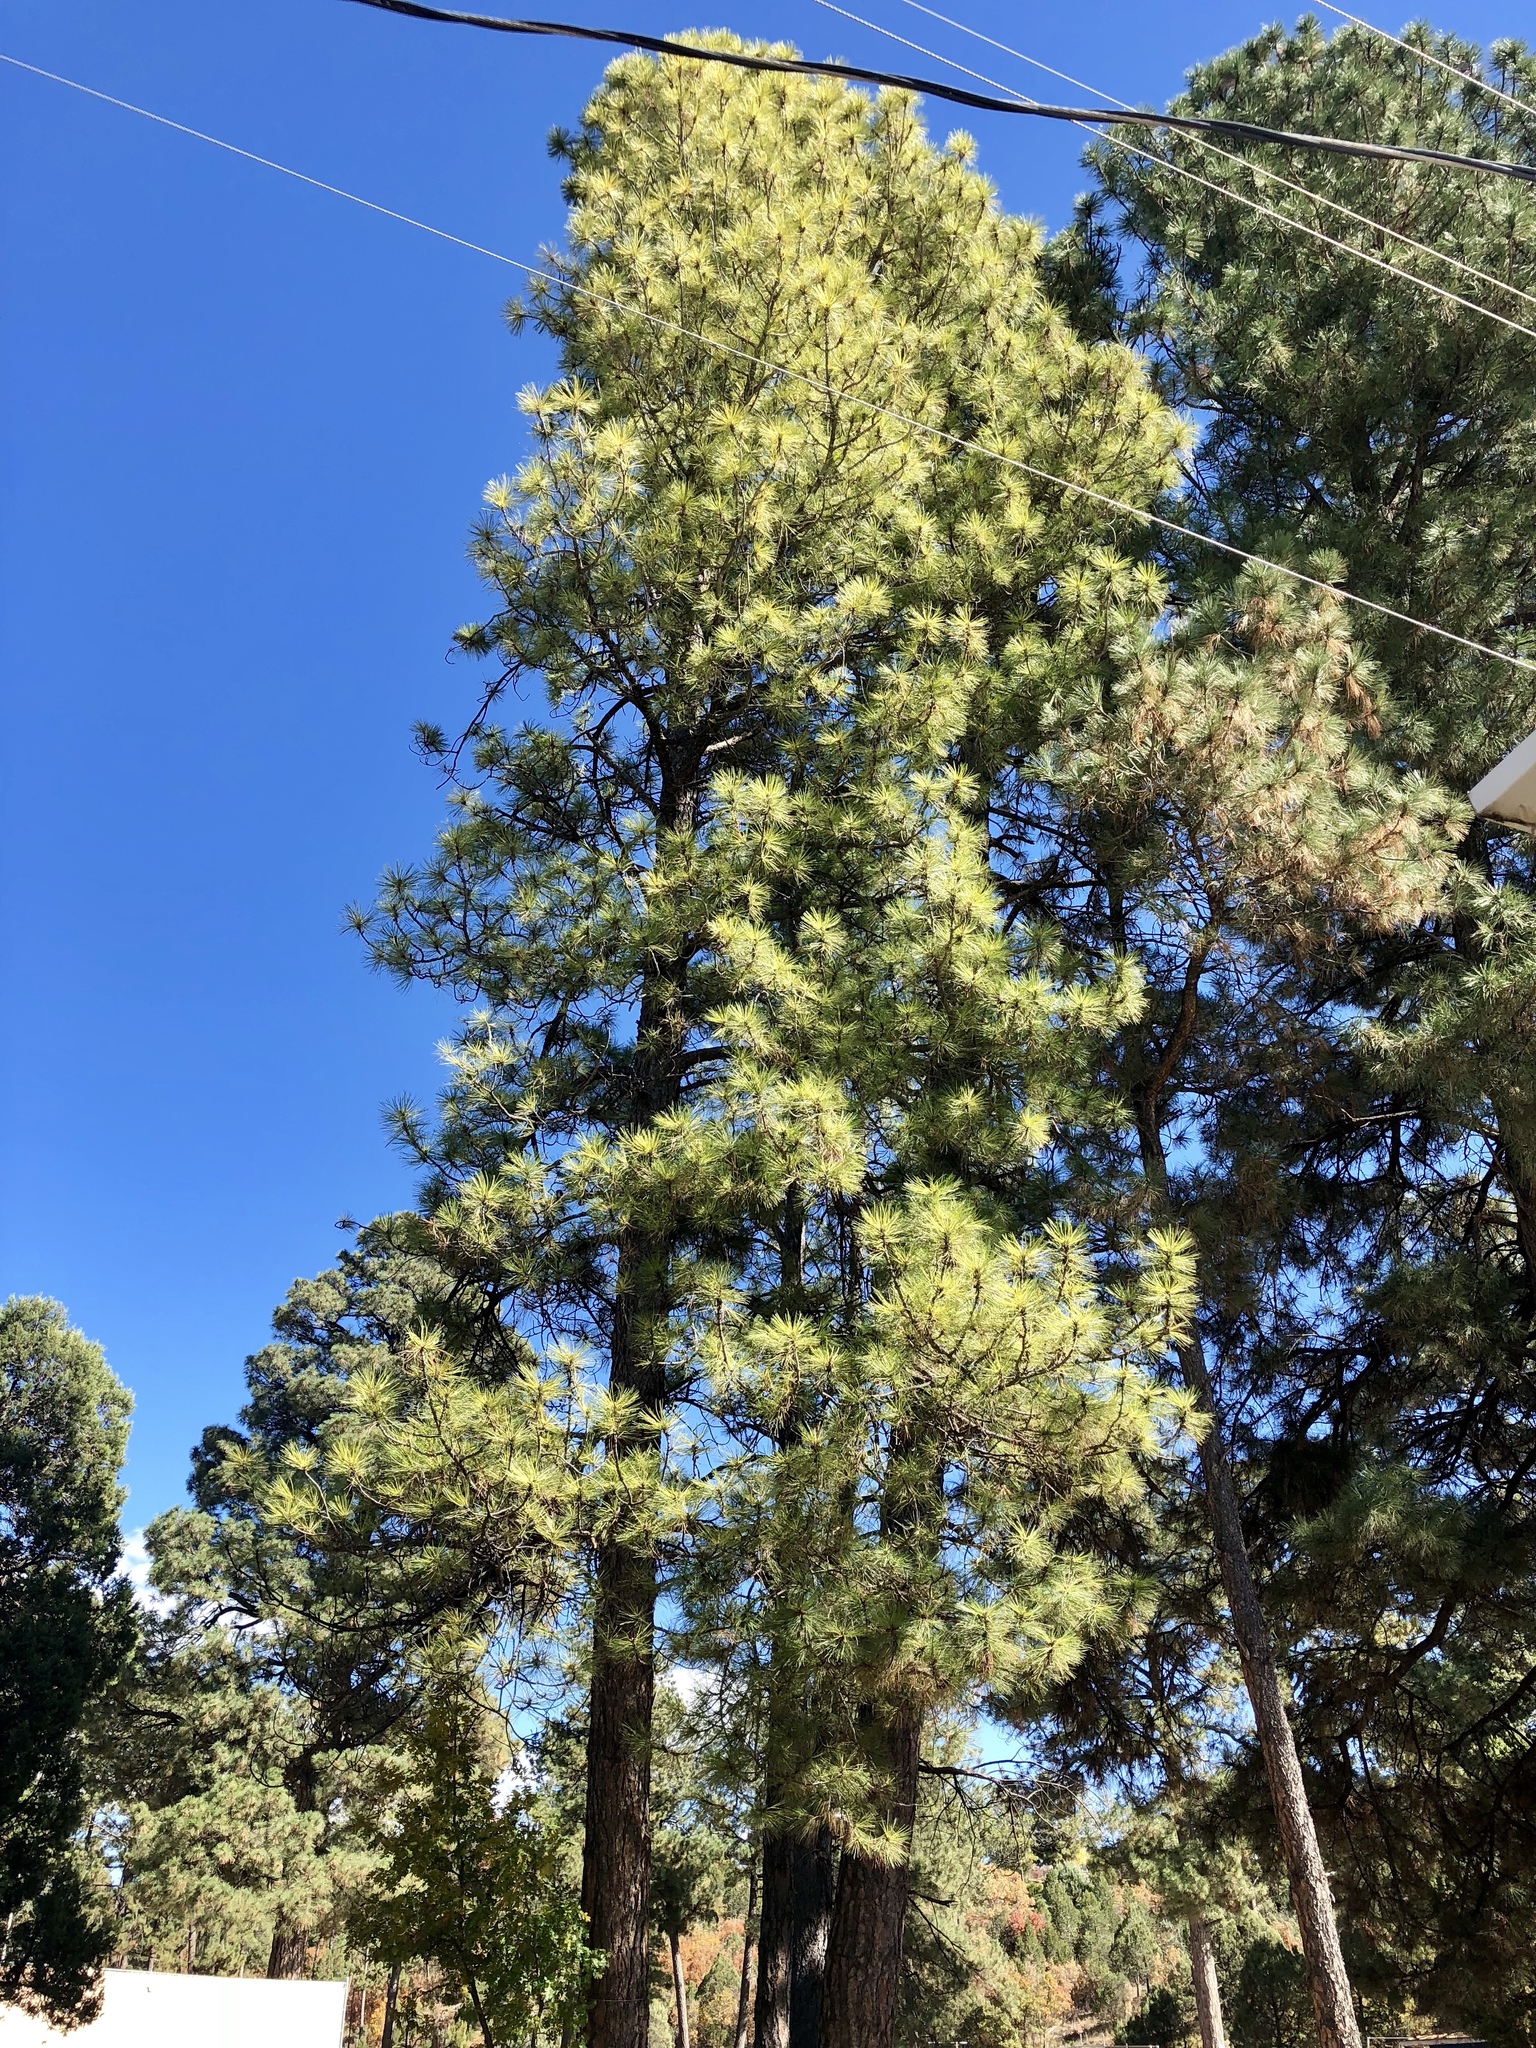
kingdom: Plantae
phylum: Tracheophyta
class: Pinopsida
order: Pinales
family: Pinaceae
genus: Pinus
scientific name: Pinus ponderosa
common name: Western yellow-pine
